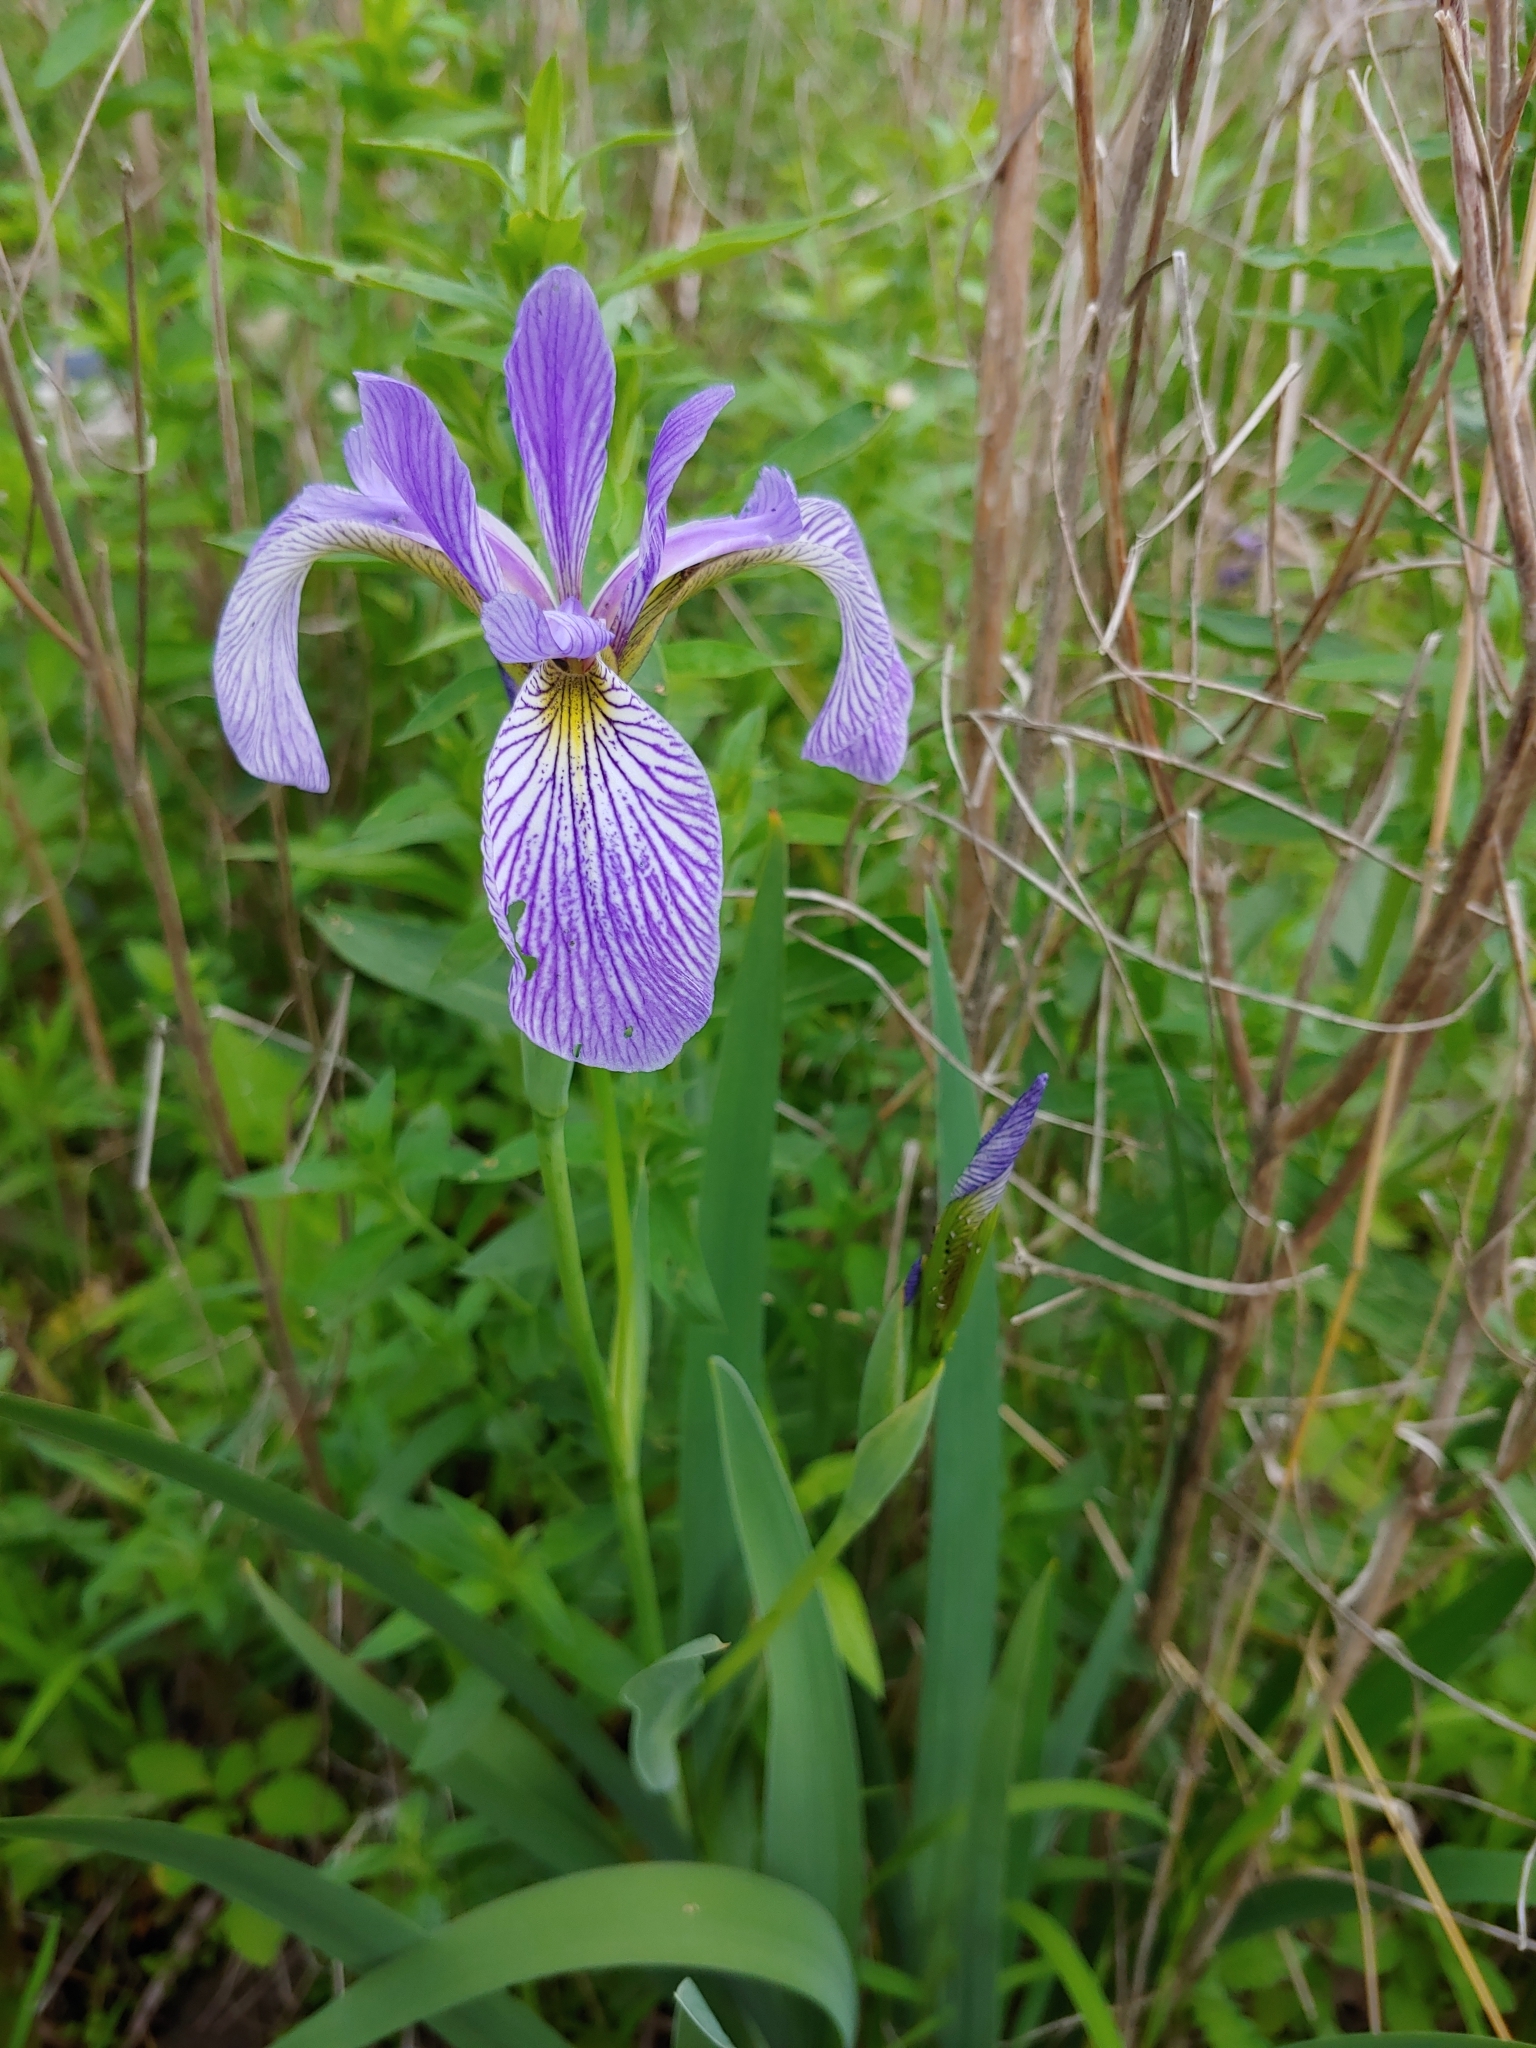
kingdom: Plantae
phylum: Tracheophyta
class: Liliopsida
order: Asparagales
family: Iridaceae
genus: Iris
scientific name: Iris versicolor
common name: Purple iris
